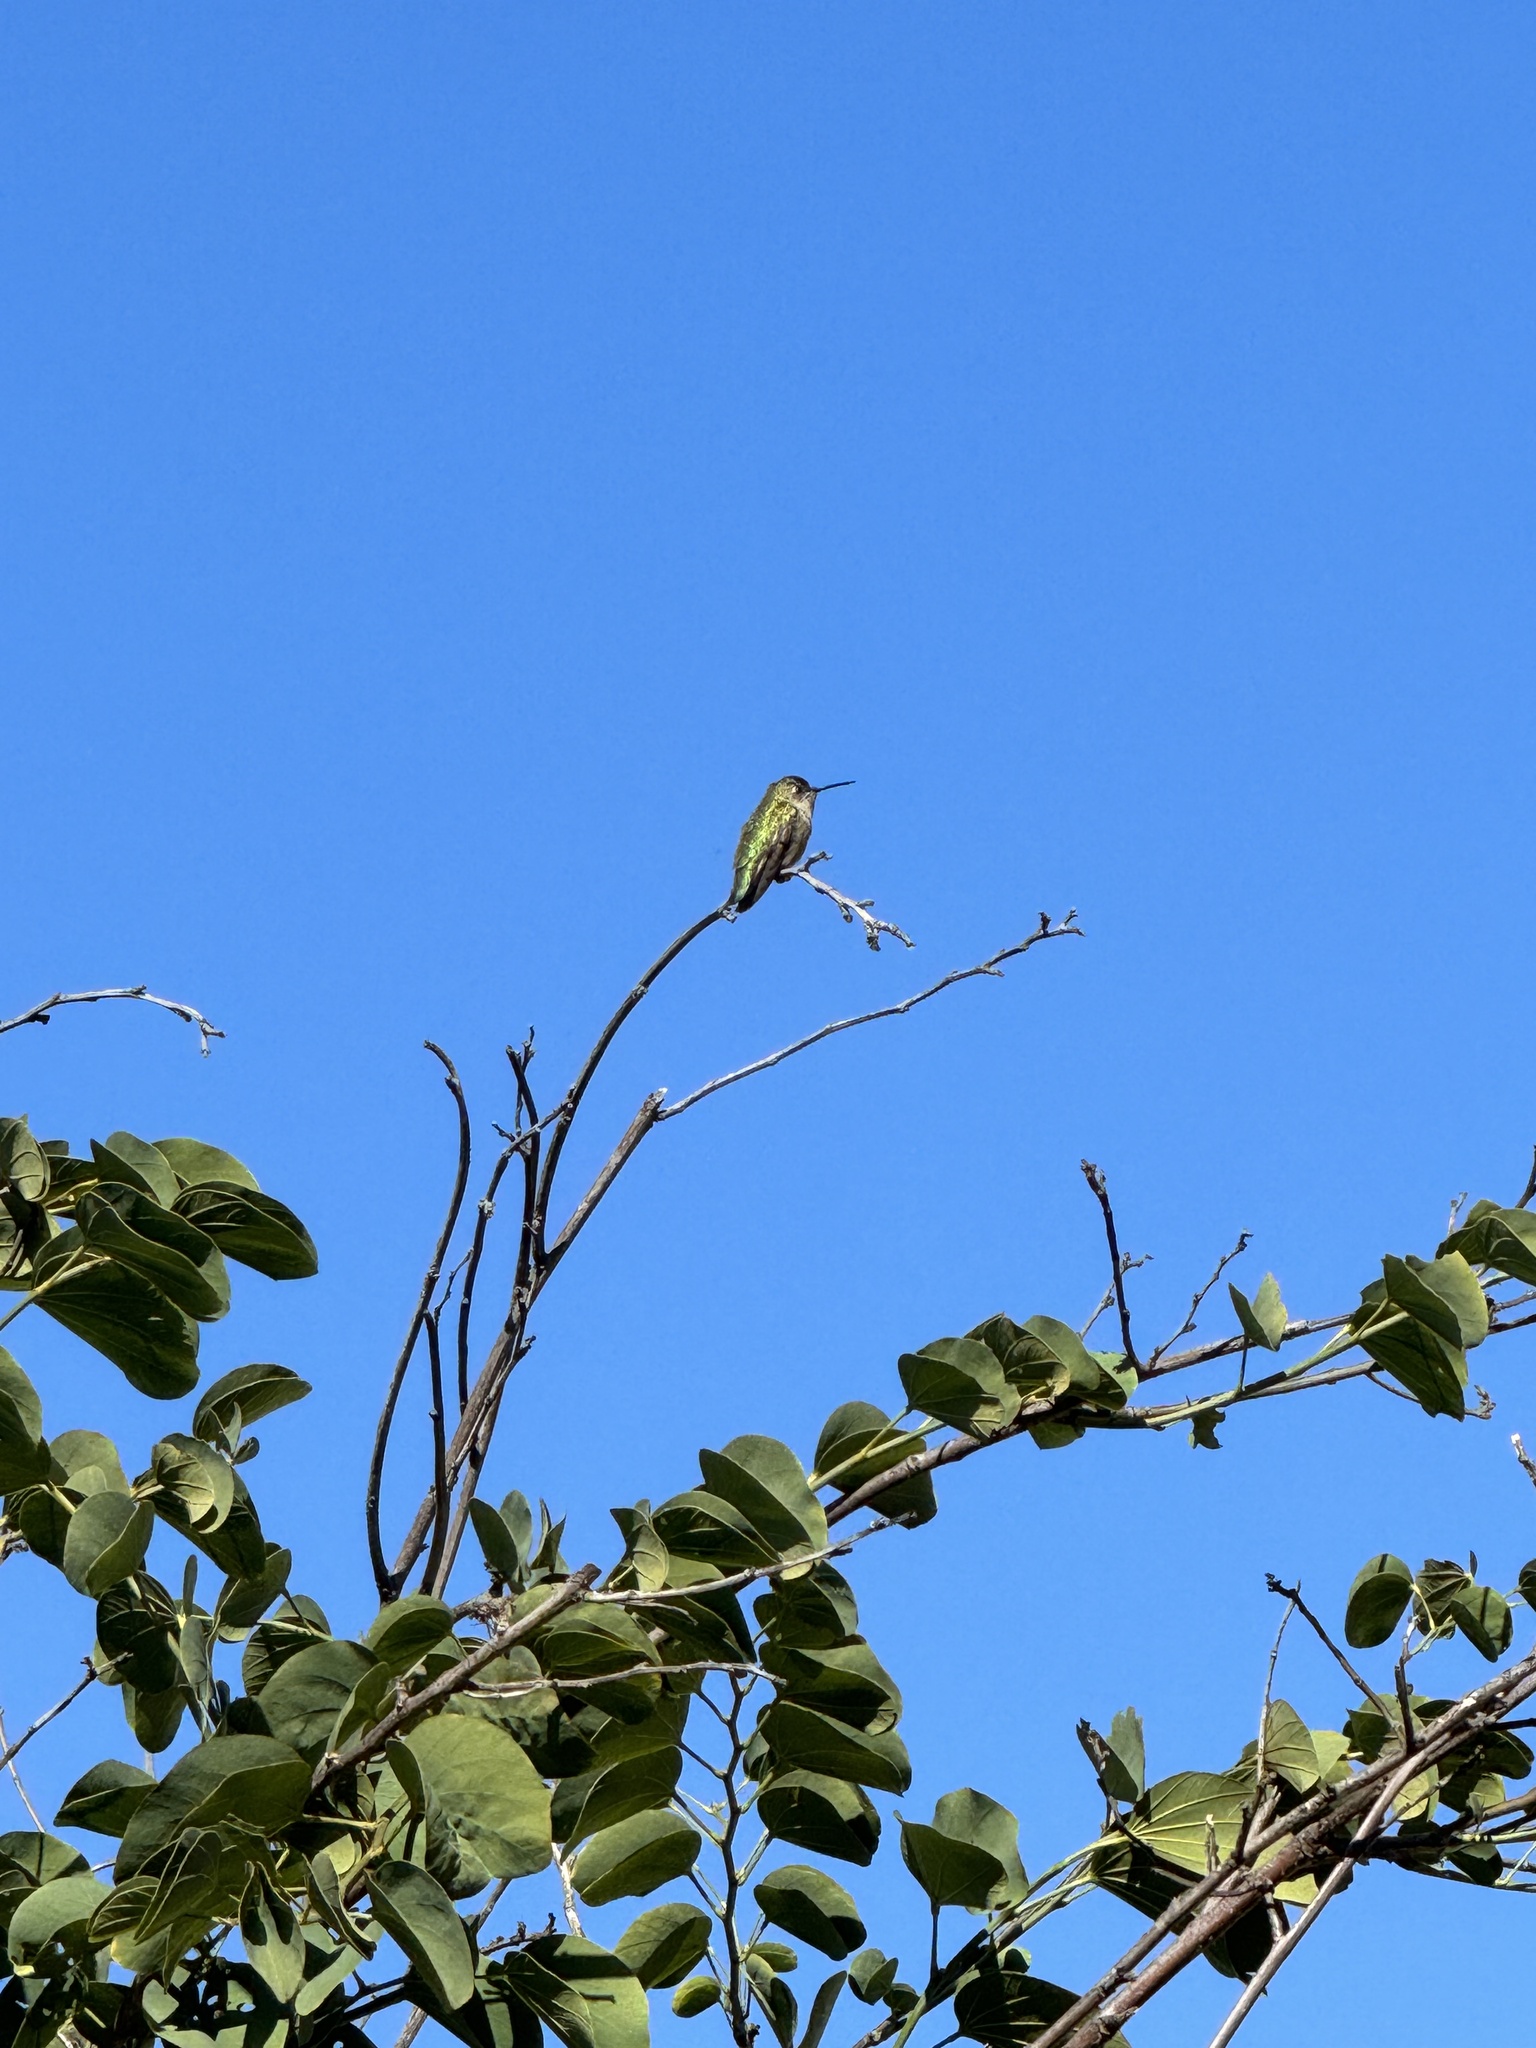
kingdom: Animalia
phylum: Chordata
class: Aves
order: Apodiformes
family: Trochilidae
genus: Calypte
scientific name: Calypte anna
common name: Anna's hummingbird
